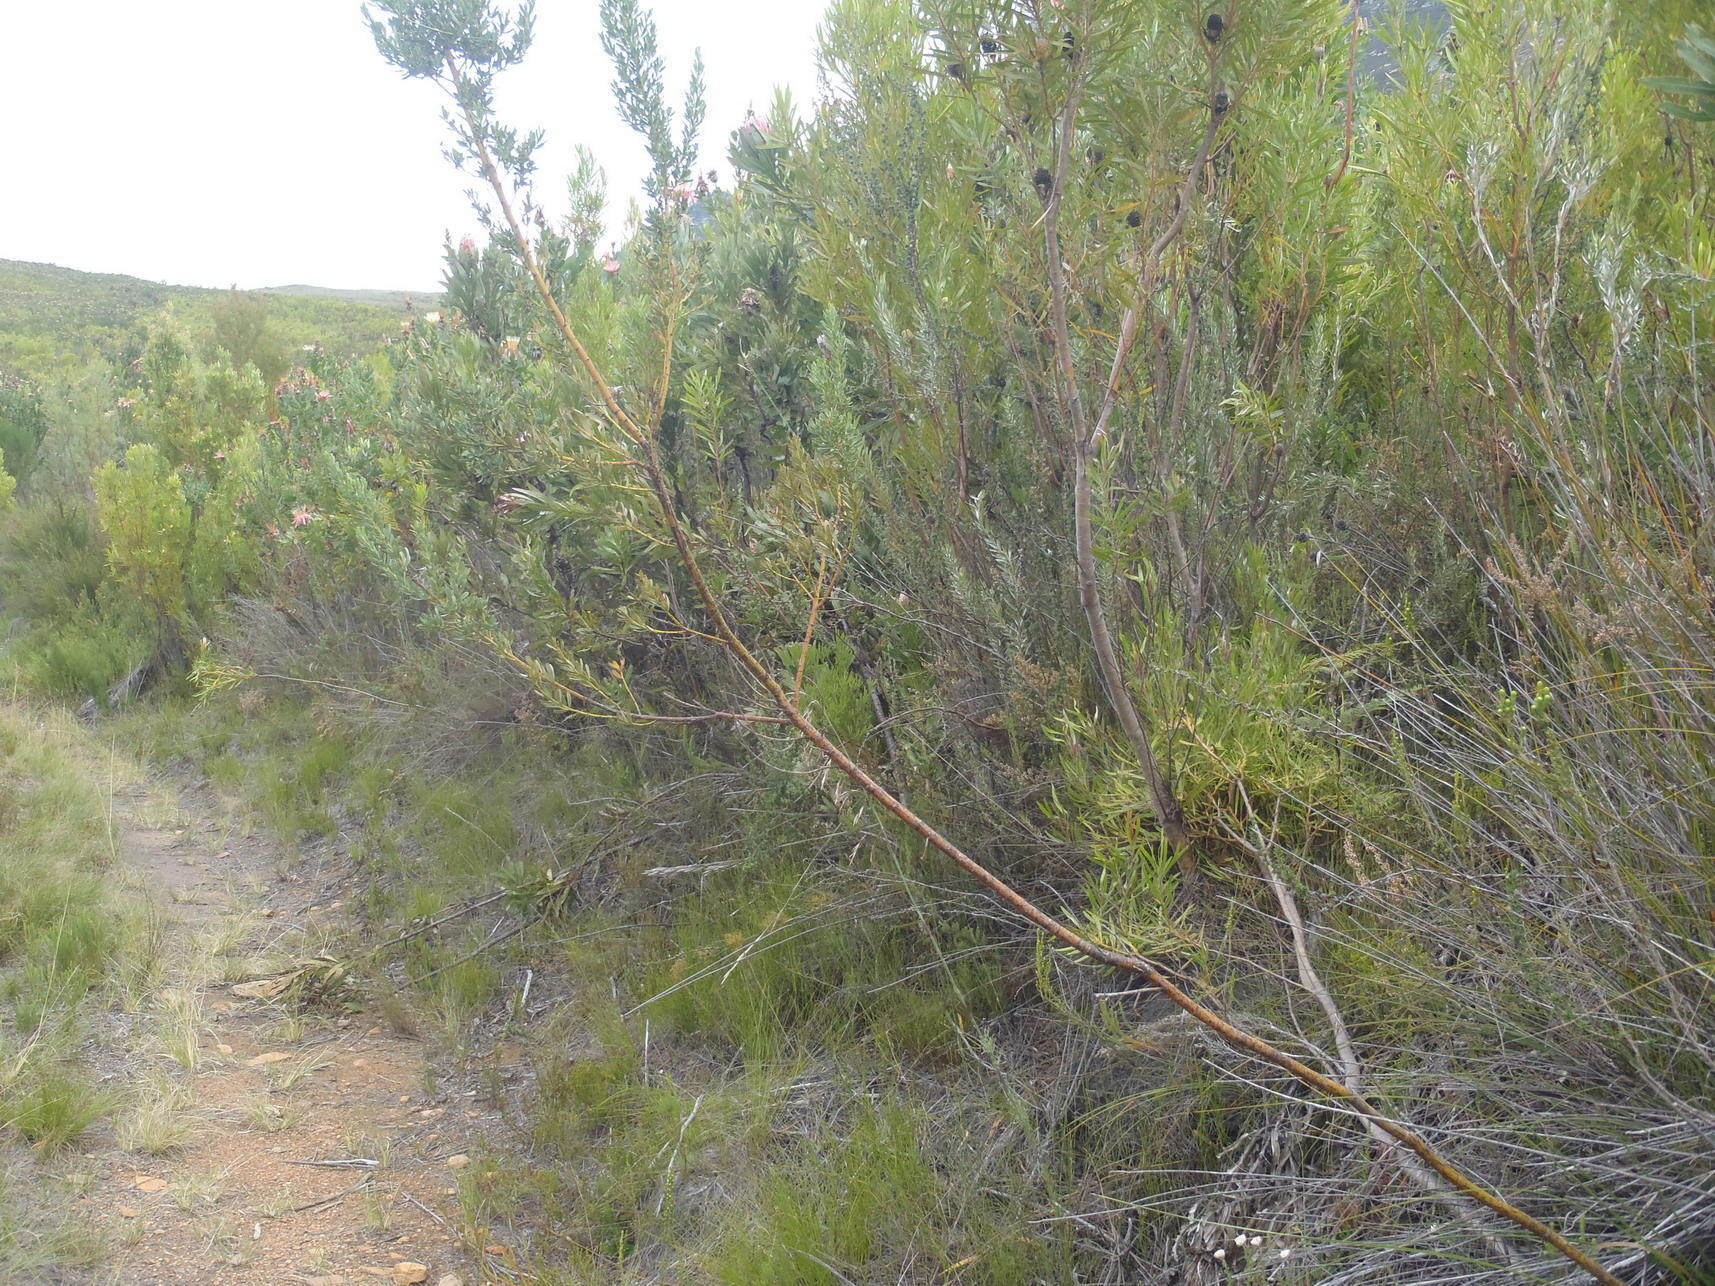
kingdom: Plantae
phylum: Tracheophyta
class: Magnoliopsida
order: Fabales
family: Fabaceae
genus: Cyclopia
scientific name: Cyclopia subternata
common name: Honeybush tea
